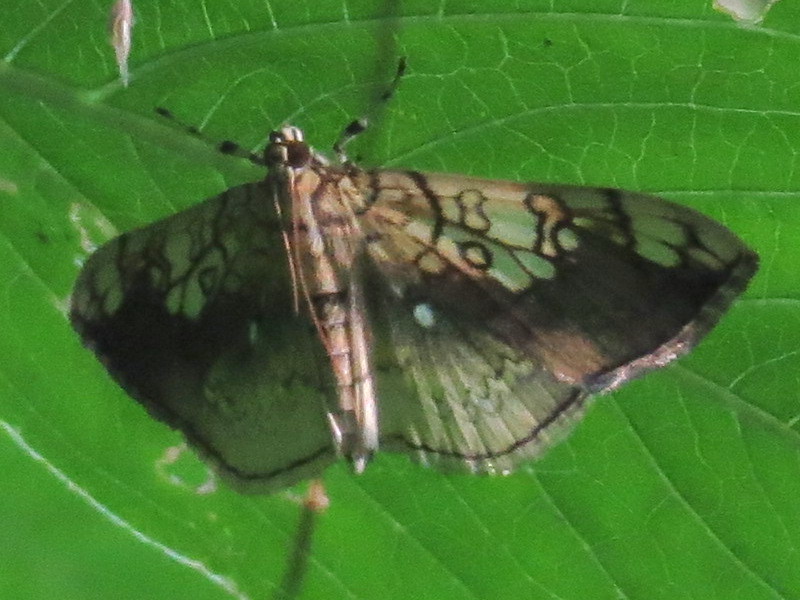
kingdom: Animalia
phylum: Arthropoda
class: Insecta
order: Lepidoptera
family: Crambidae
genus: Pantographa
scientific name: Pantographa limata
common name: Basswood leafroller moth
